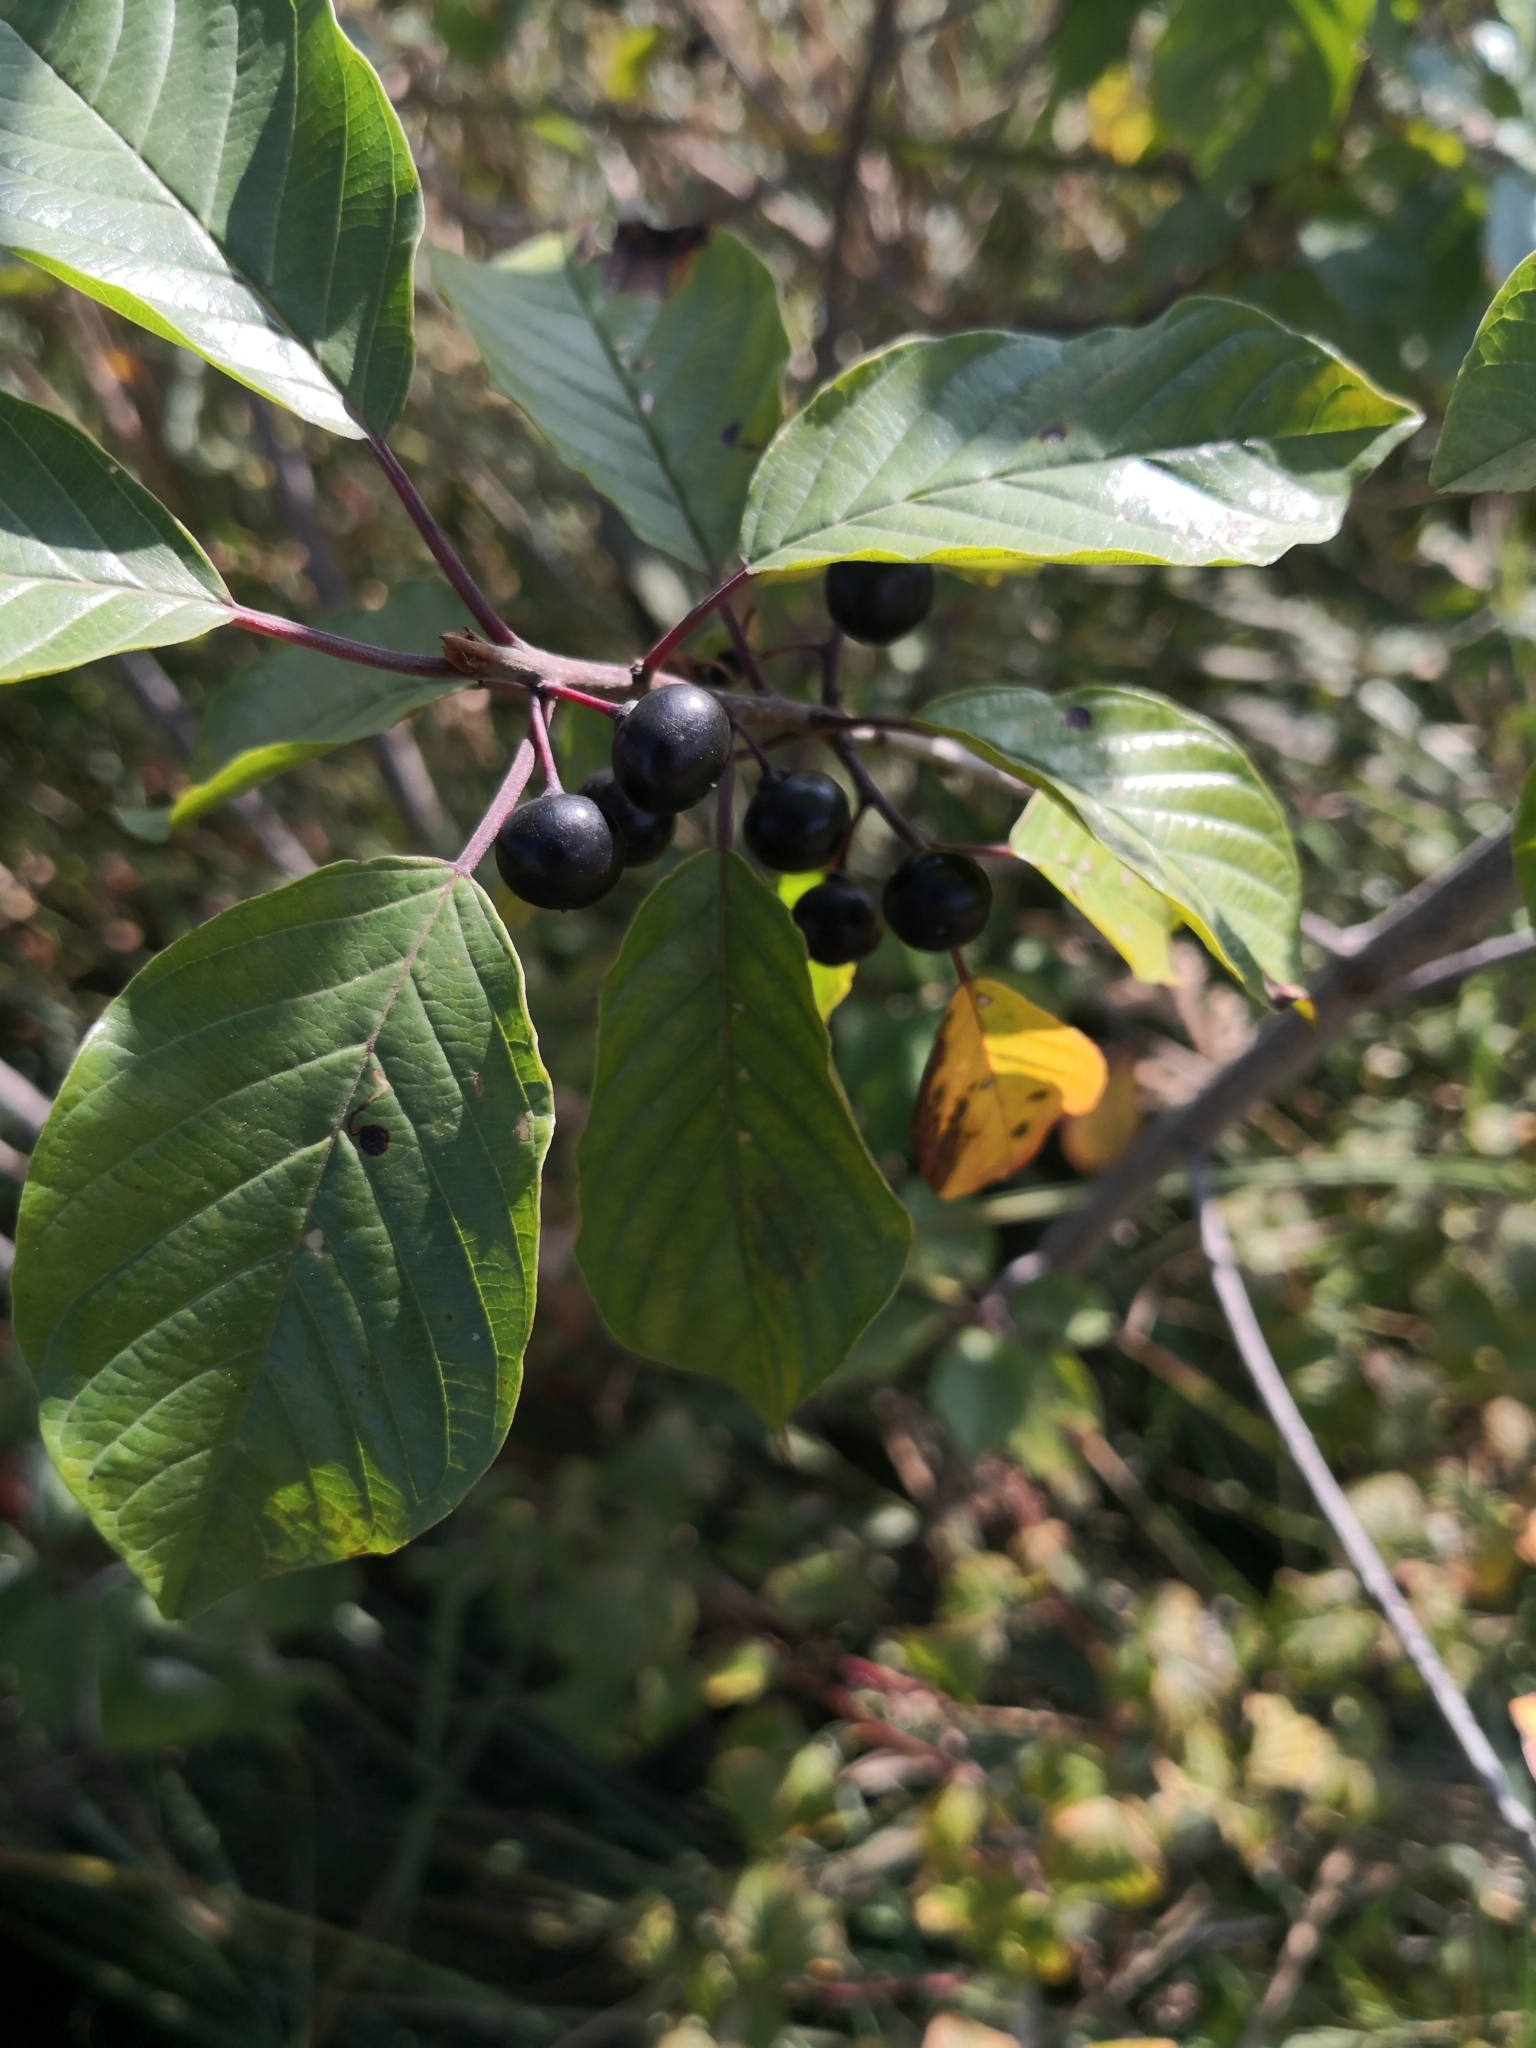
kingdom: Plantae
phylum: Tracheophyta
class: Magnoliopsida
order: Rosales
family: Rhamnaceae
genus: Frangula
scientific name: Frangula alnus
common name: Alder buckthorn
